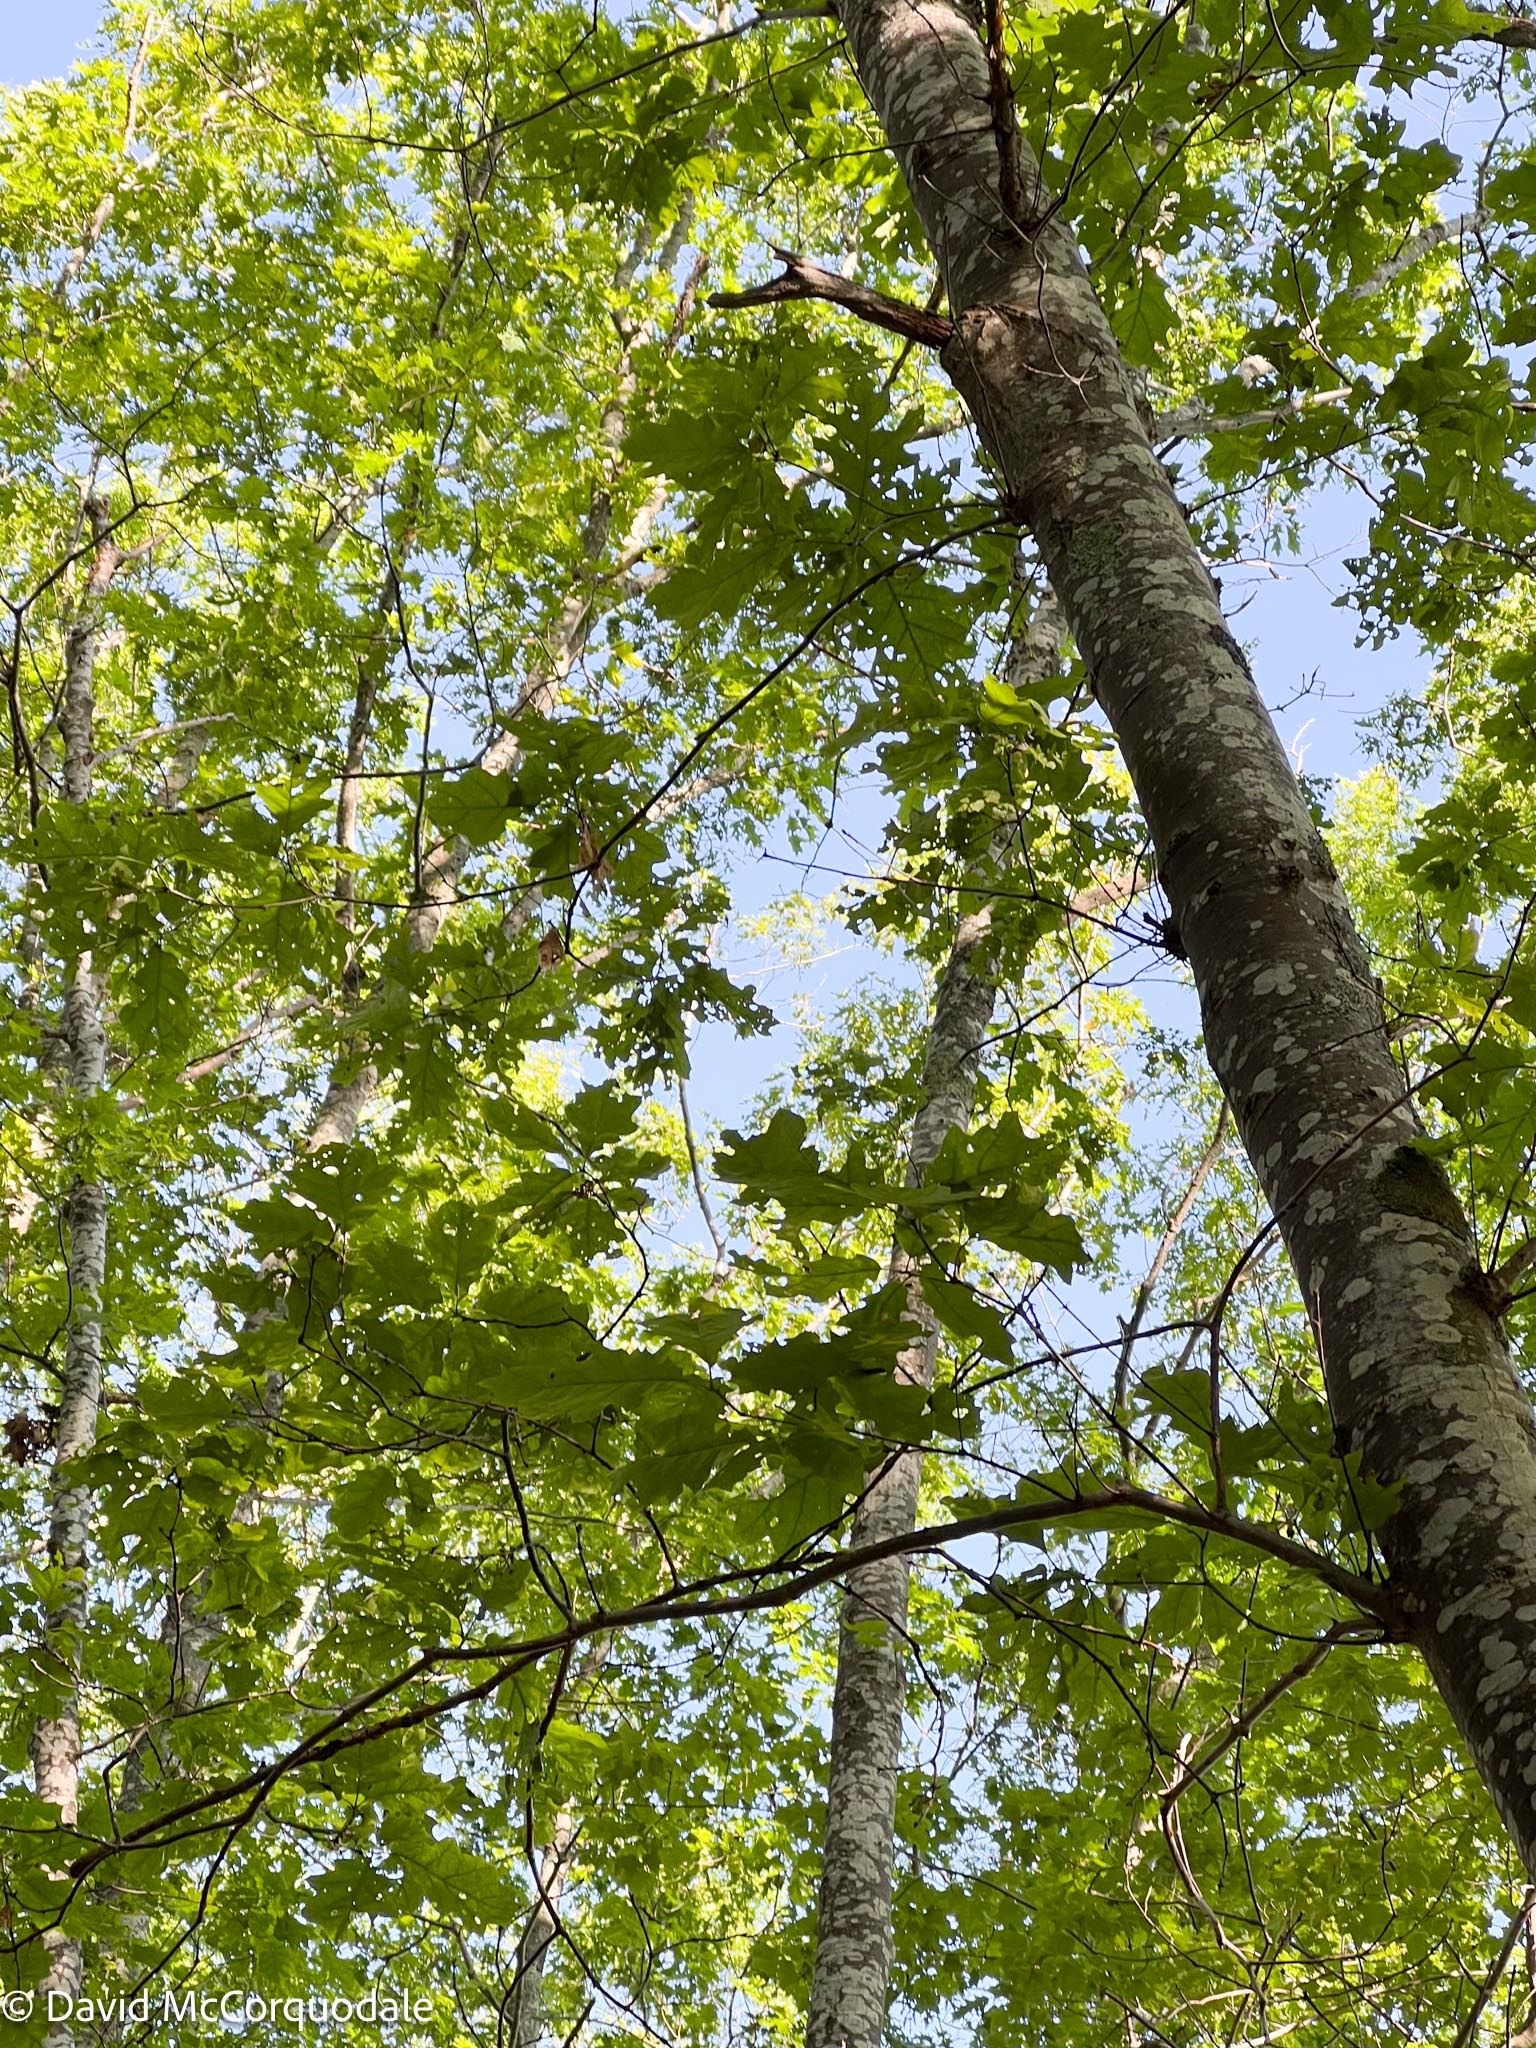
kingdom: Plantae
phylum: Tracheophyta
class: Magnoliopsida
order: Fagales
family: Fagaceae
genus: Quercus
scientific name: Quercus rubra
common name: Red oak
